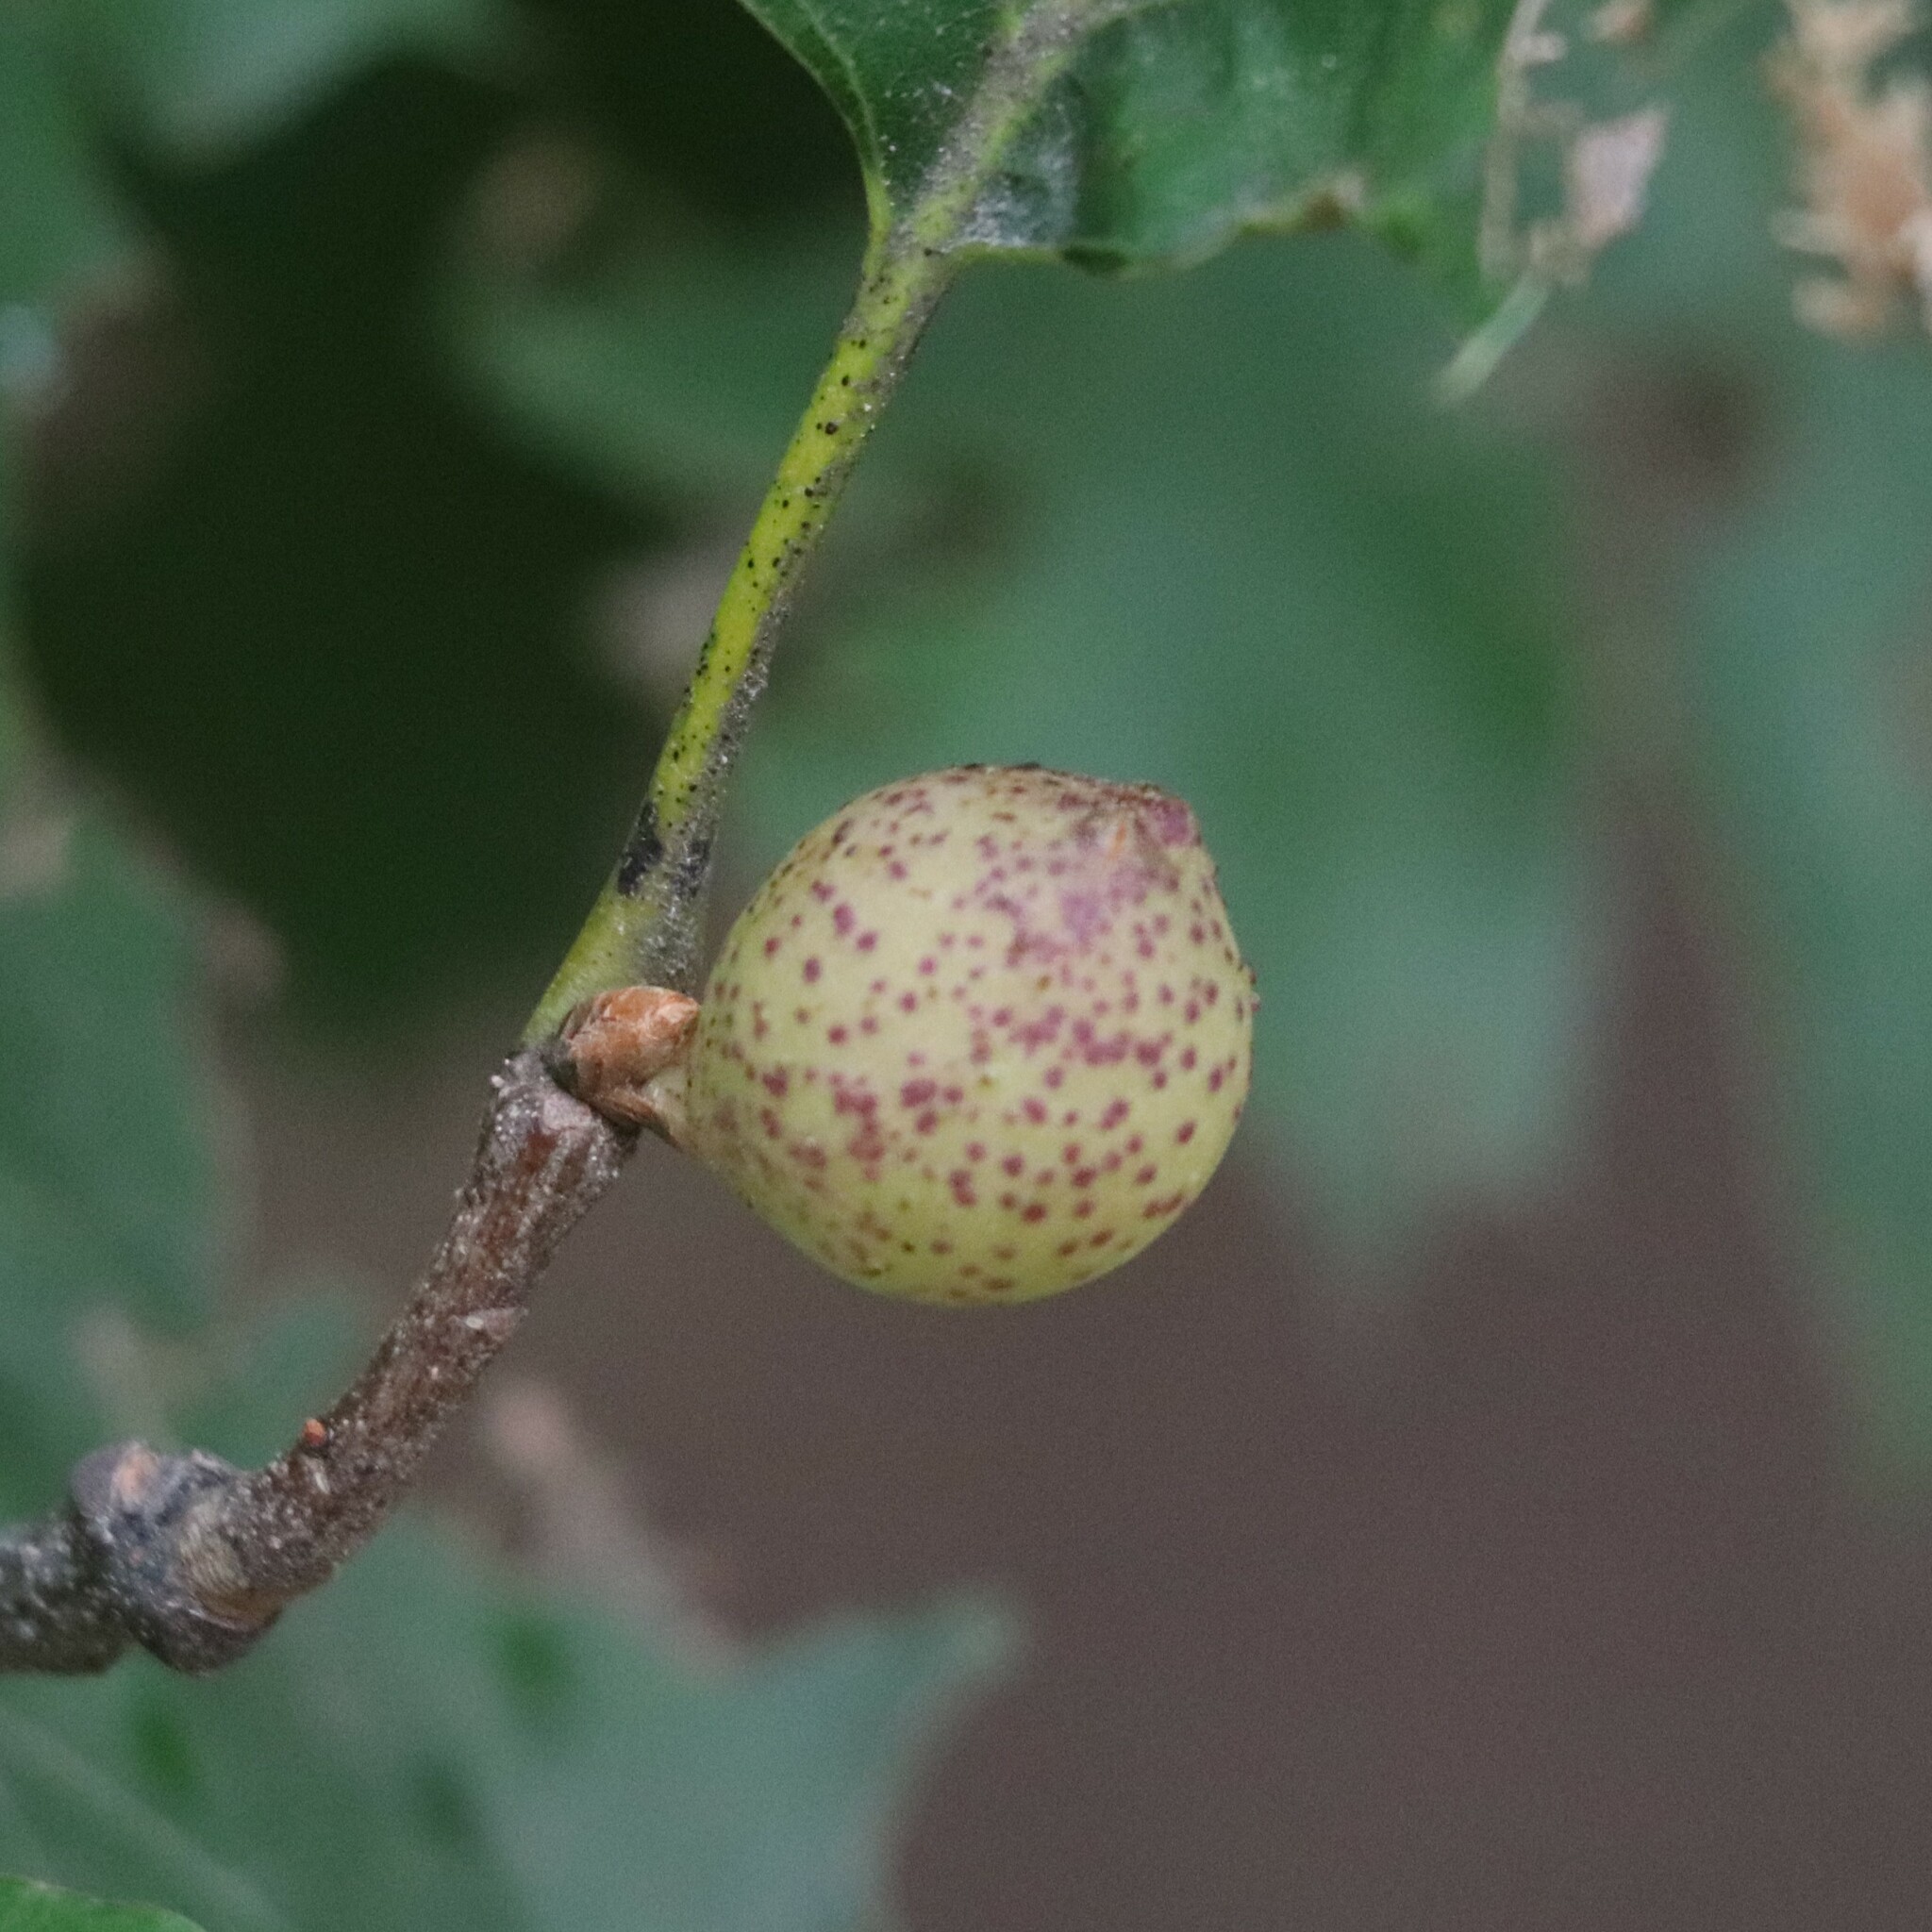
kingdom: Animalia
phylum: Arthropoda
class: Insecta
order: Hymenoptera
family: Cynipidae
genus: Amphibolips
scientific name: Amphibolips
